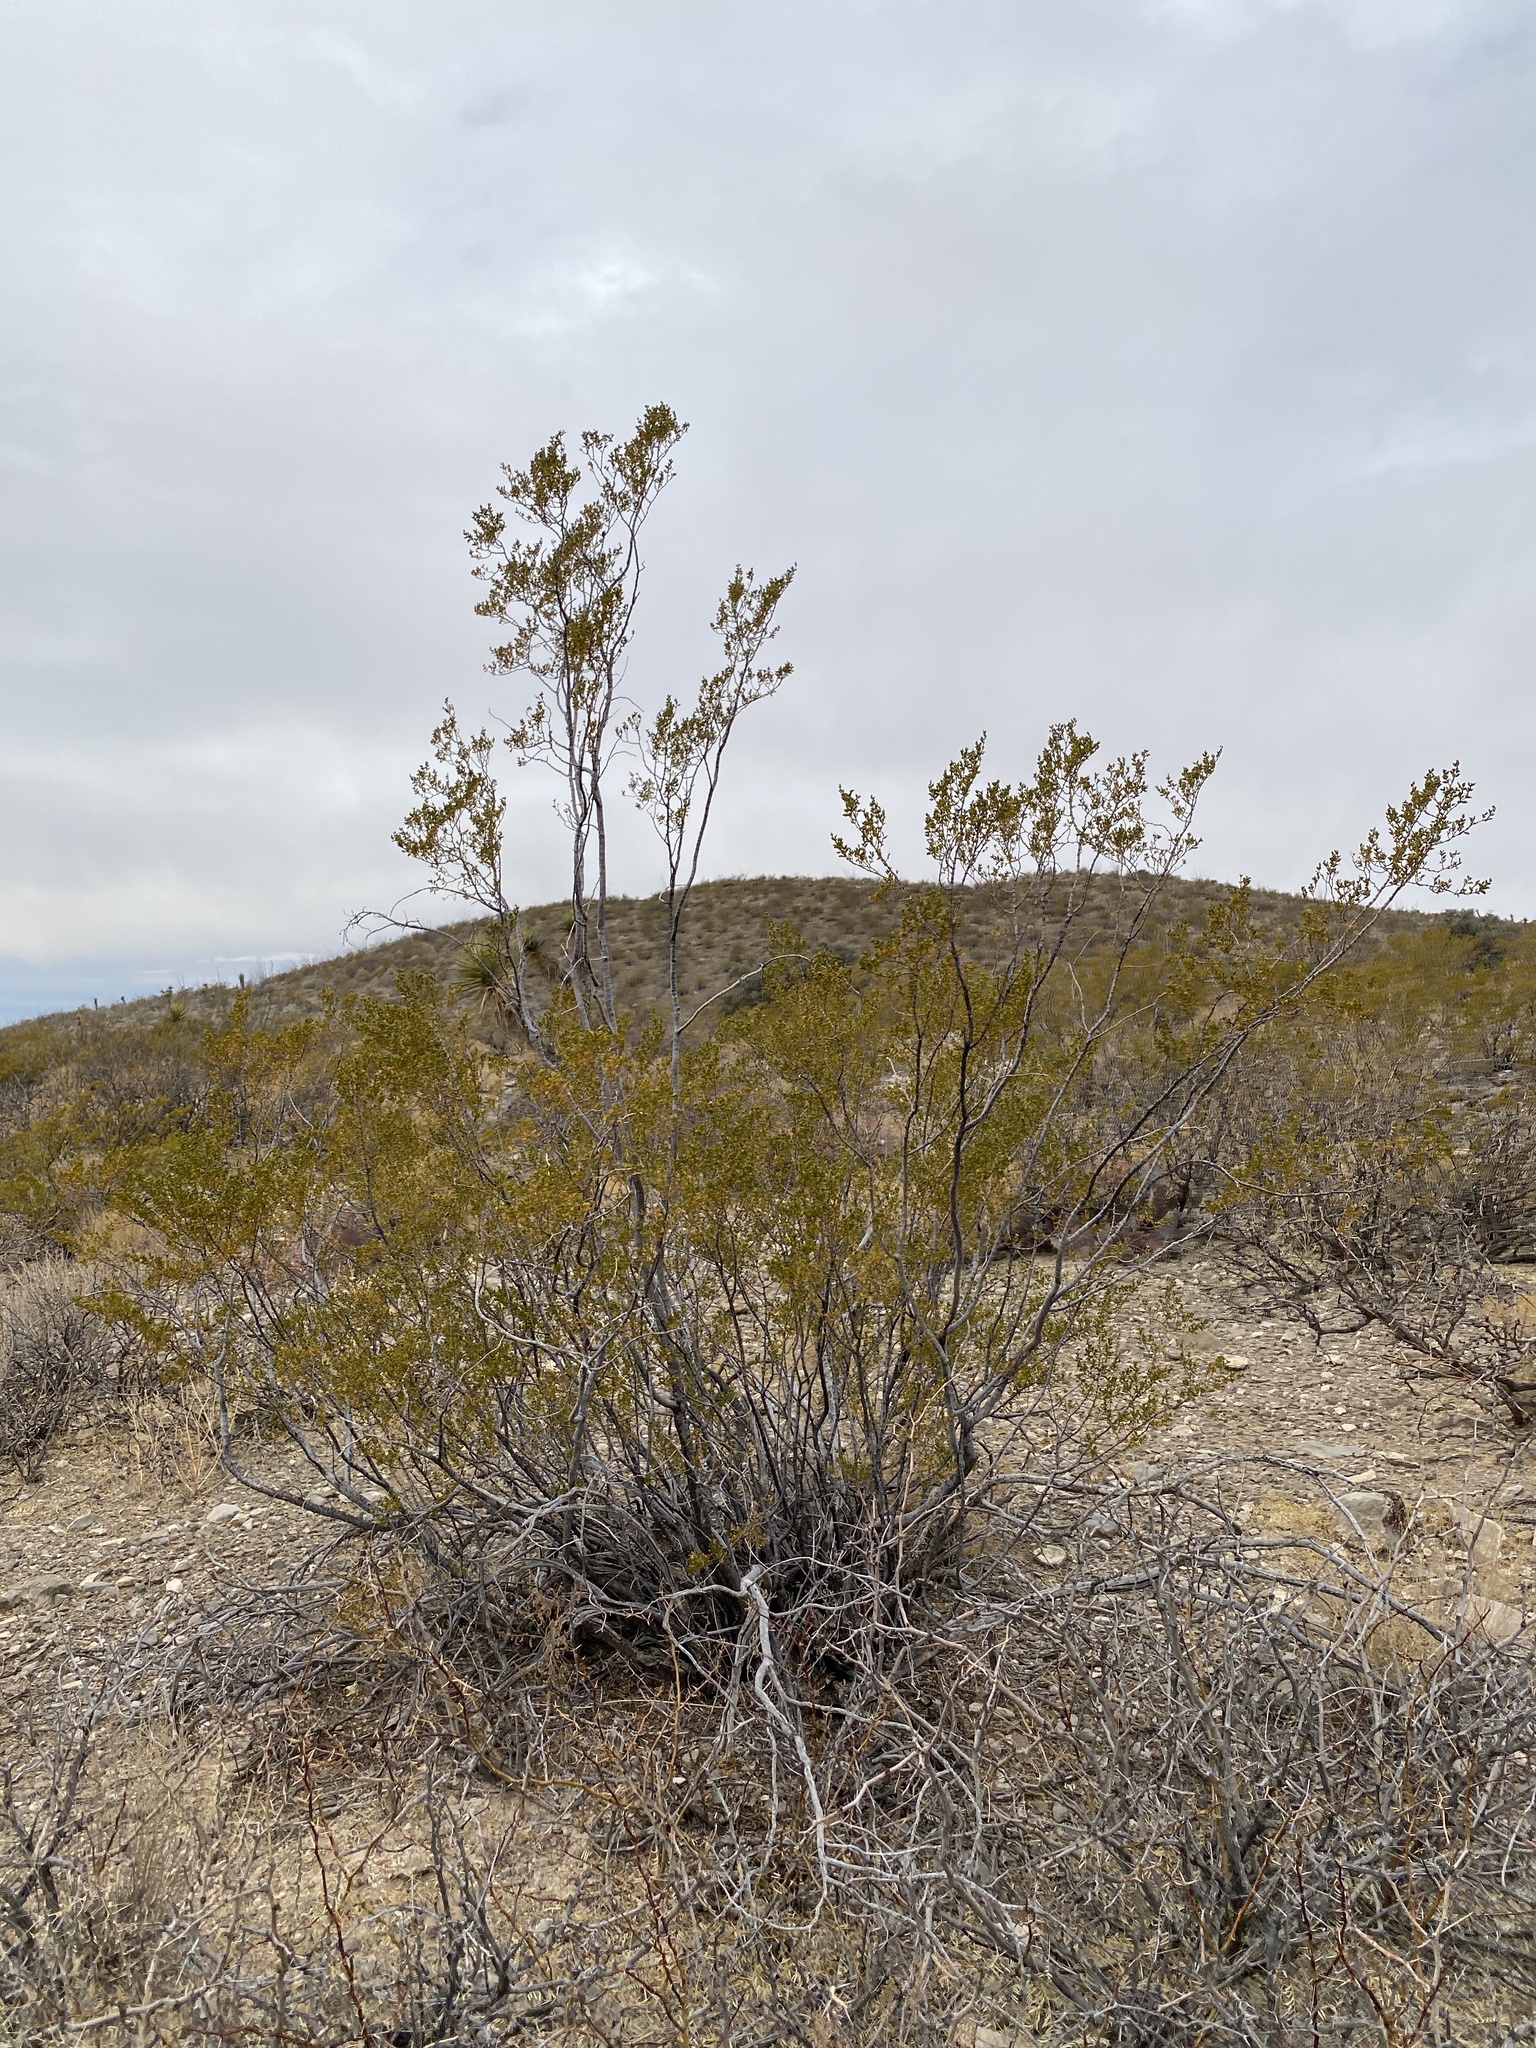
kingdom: Plantae
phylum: Tracheophyta
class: Magnoliopsida
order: Zygophyllales
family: Zygophyllaceae
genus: Larrea
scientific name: Larrea tridentata
